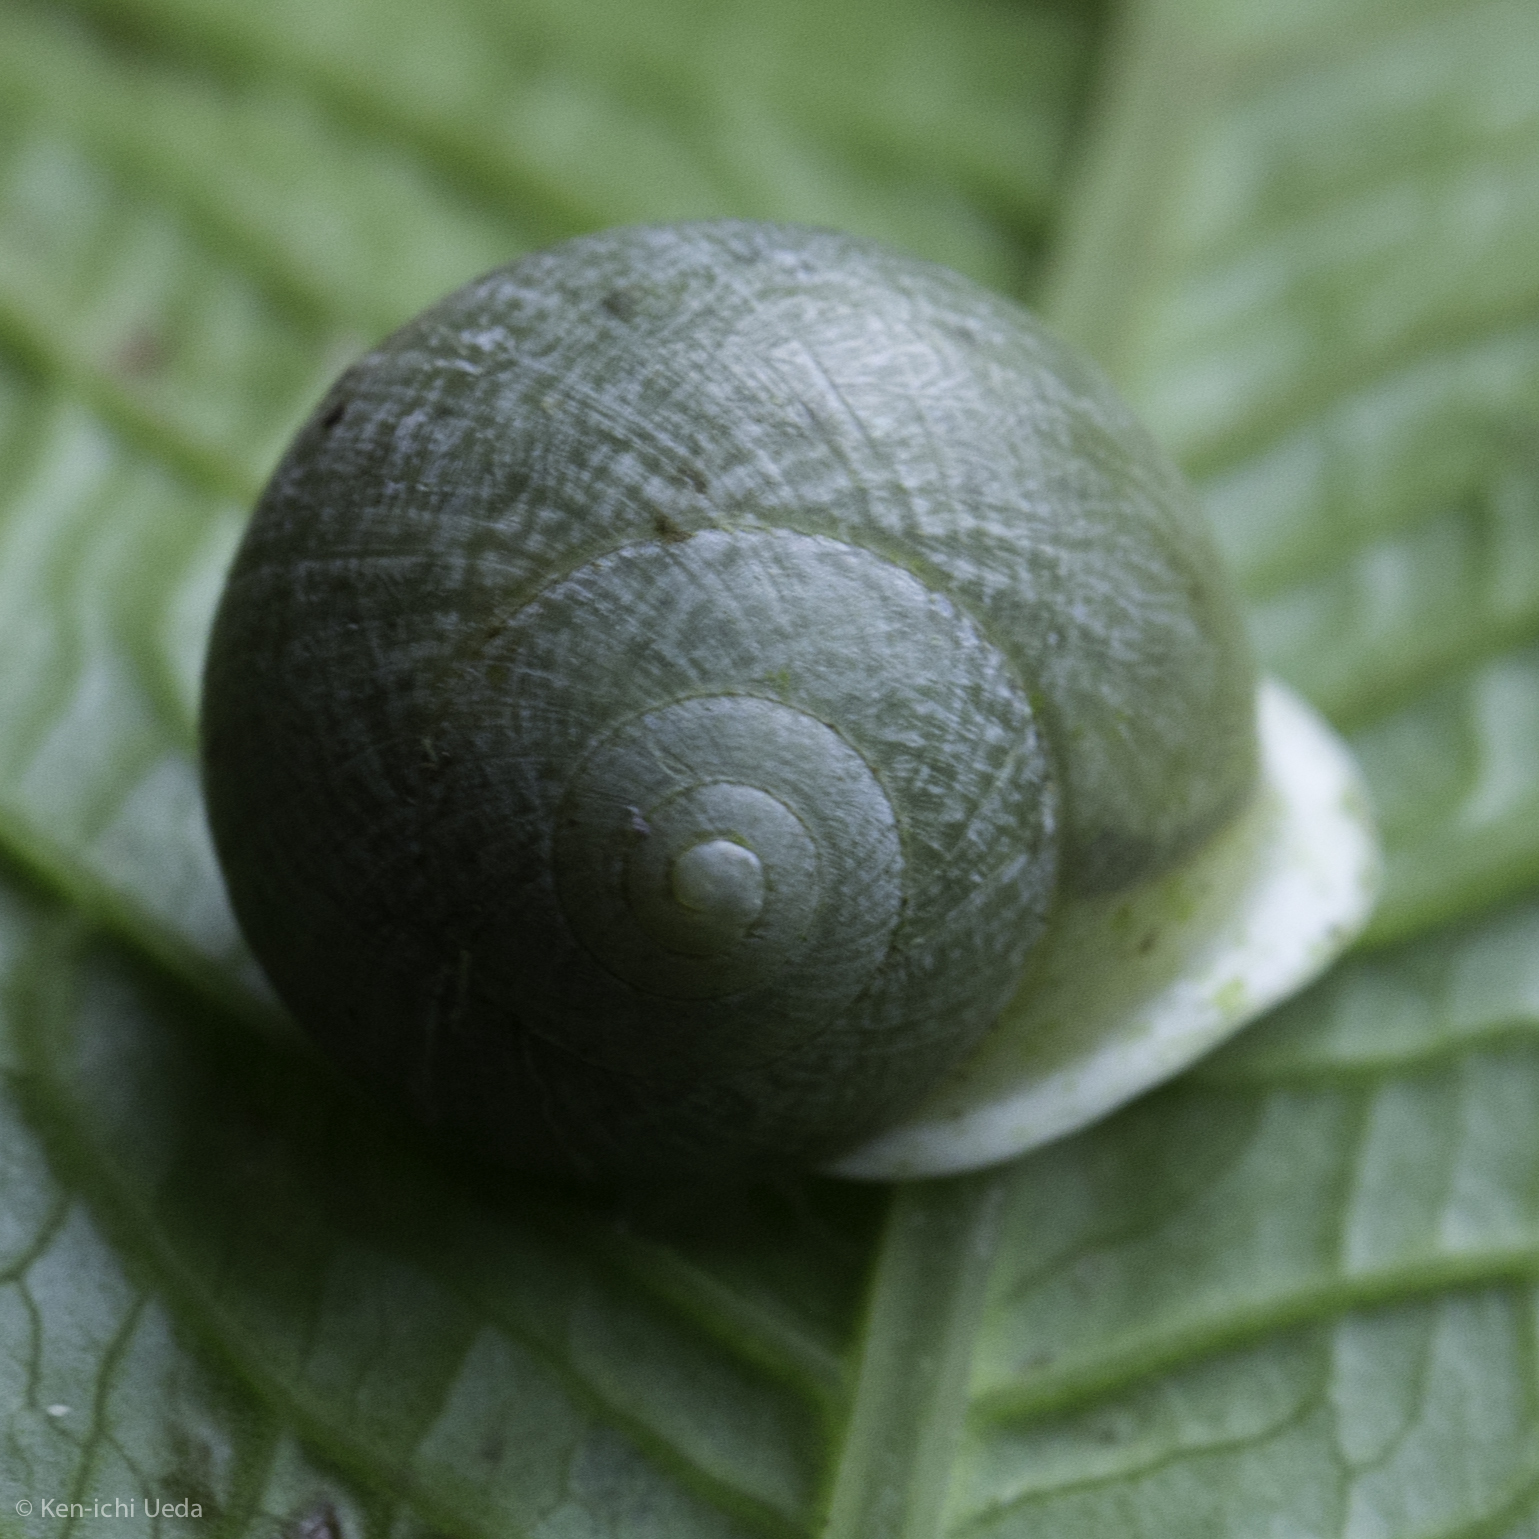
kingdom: Animalia
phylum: Mollusca
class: Gastropoda
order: Cycloneritida
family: Helicinidae
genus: Helicina
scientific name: Helicina
